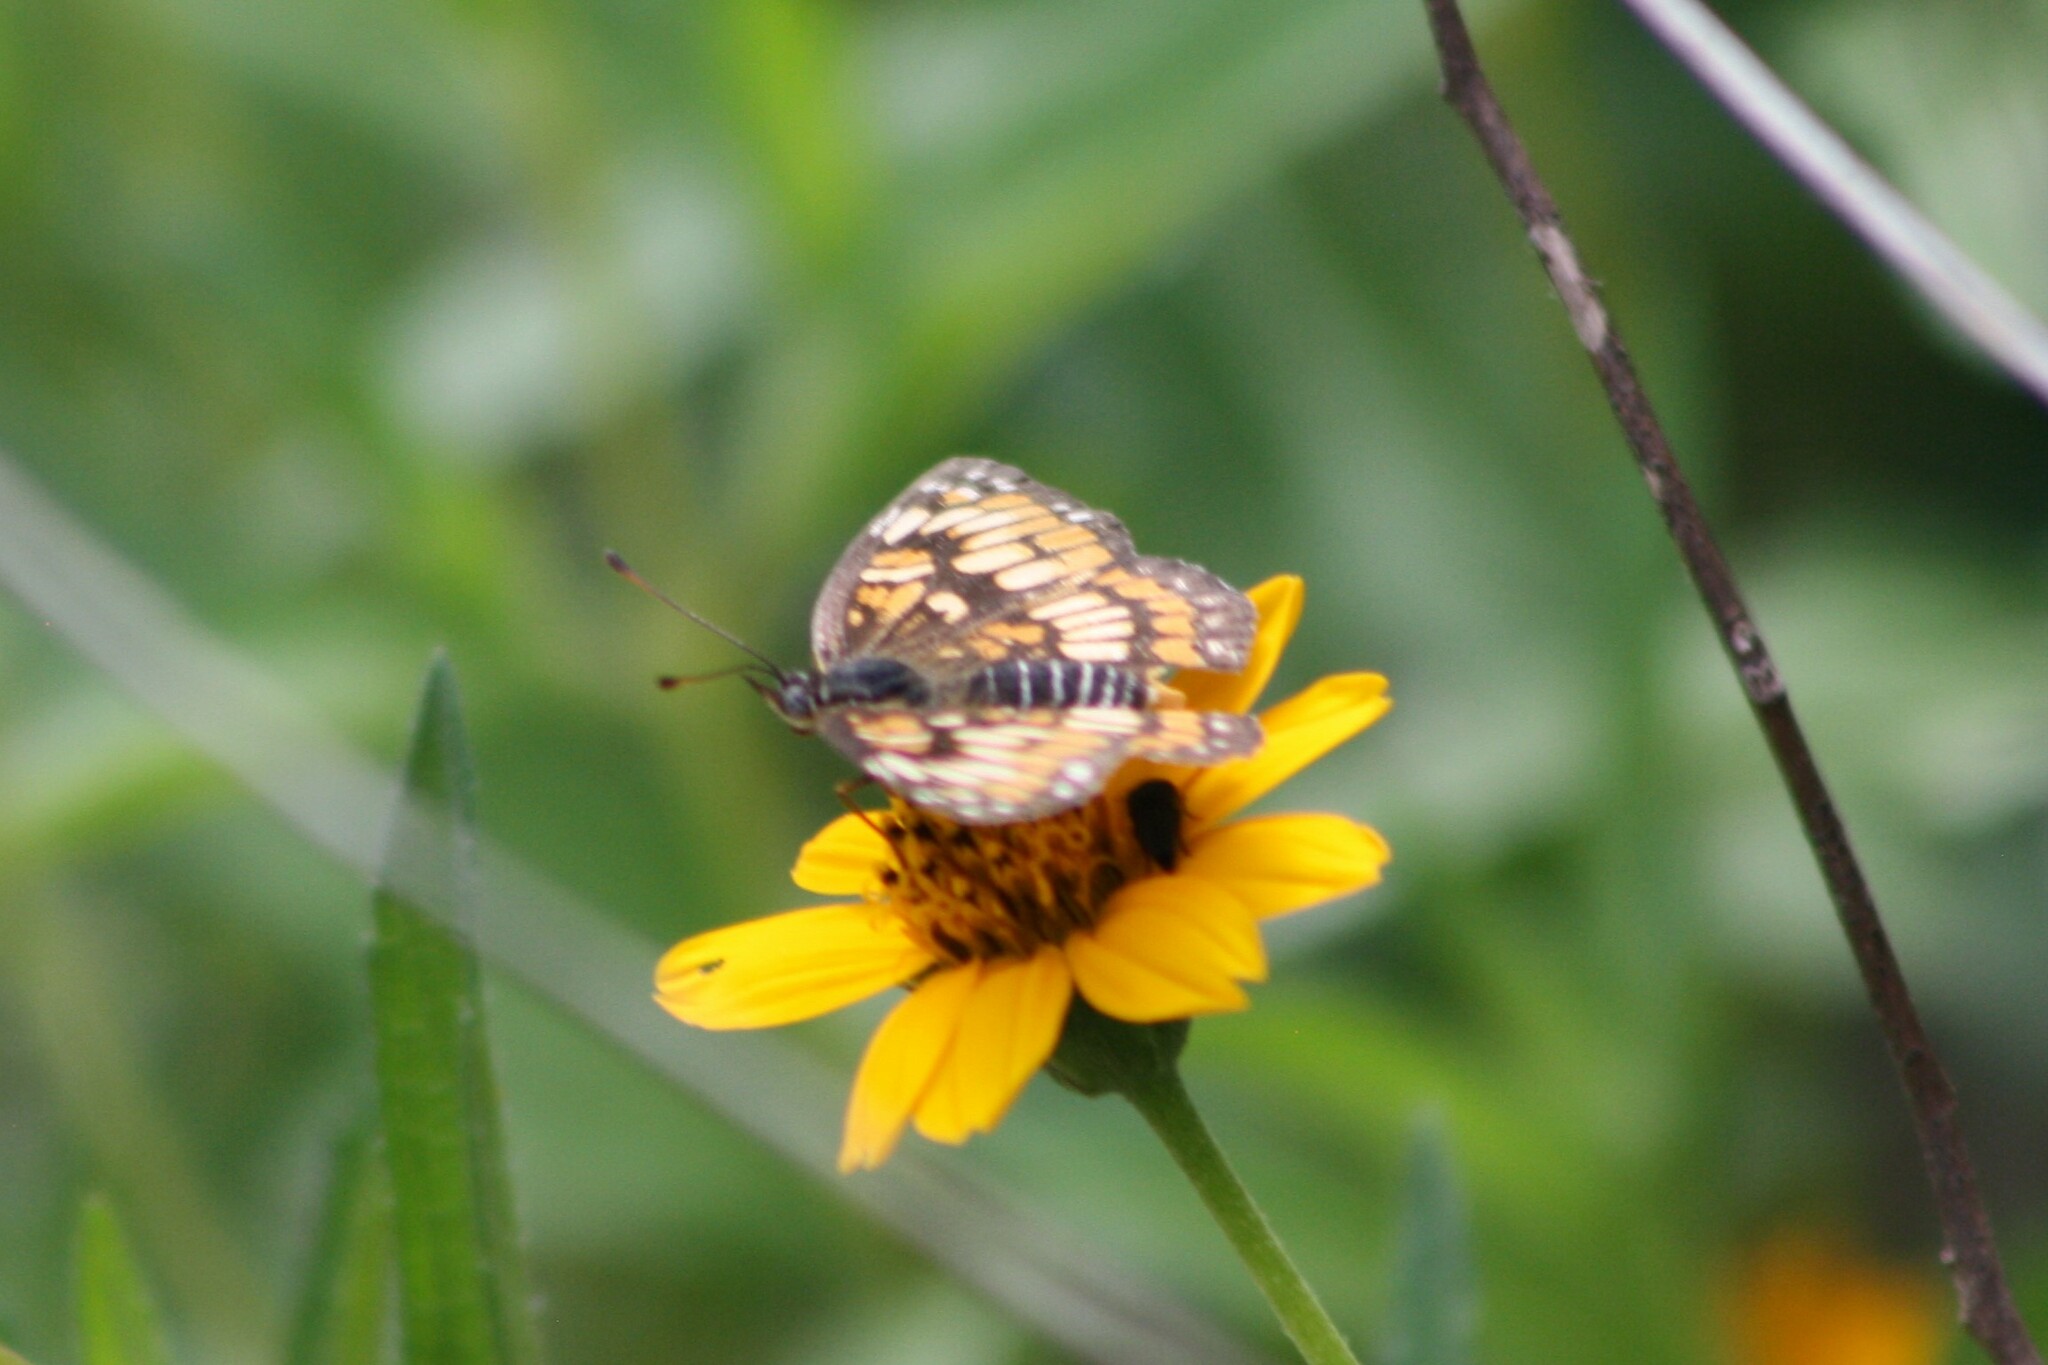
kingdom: Animalia
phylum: Arthropoda
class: Insecta
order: Lepidoptera
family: Nymphalidae
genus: Thessalia
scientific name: Thessalia theona
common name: Nymphalid moth
